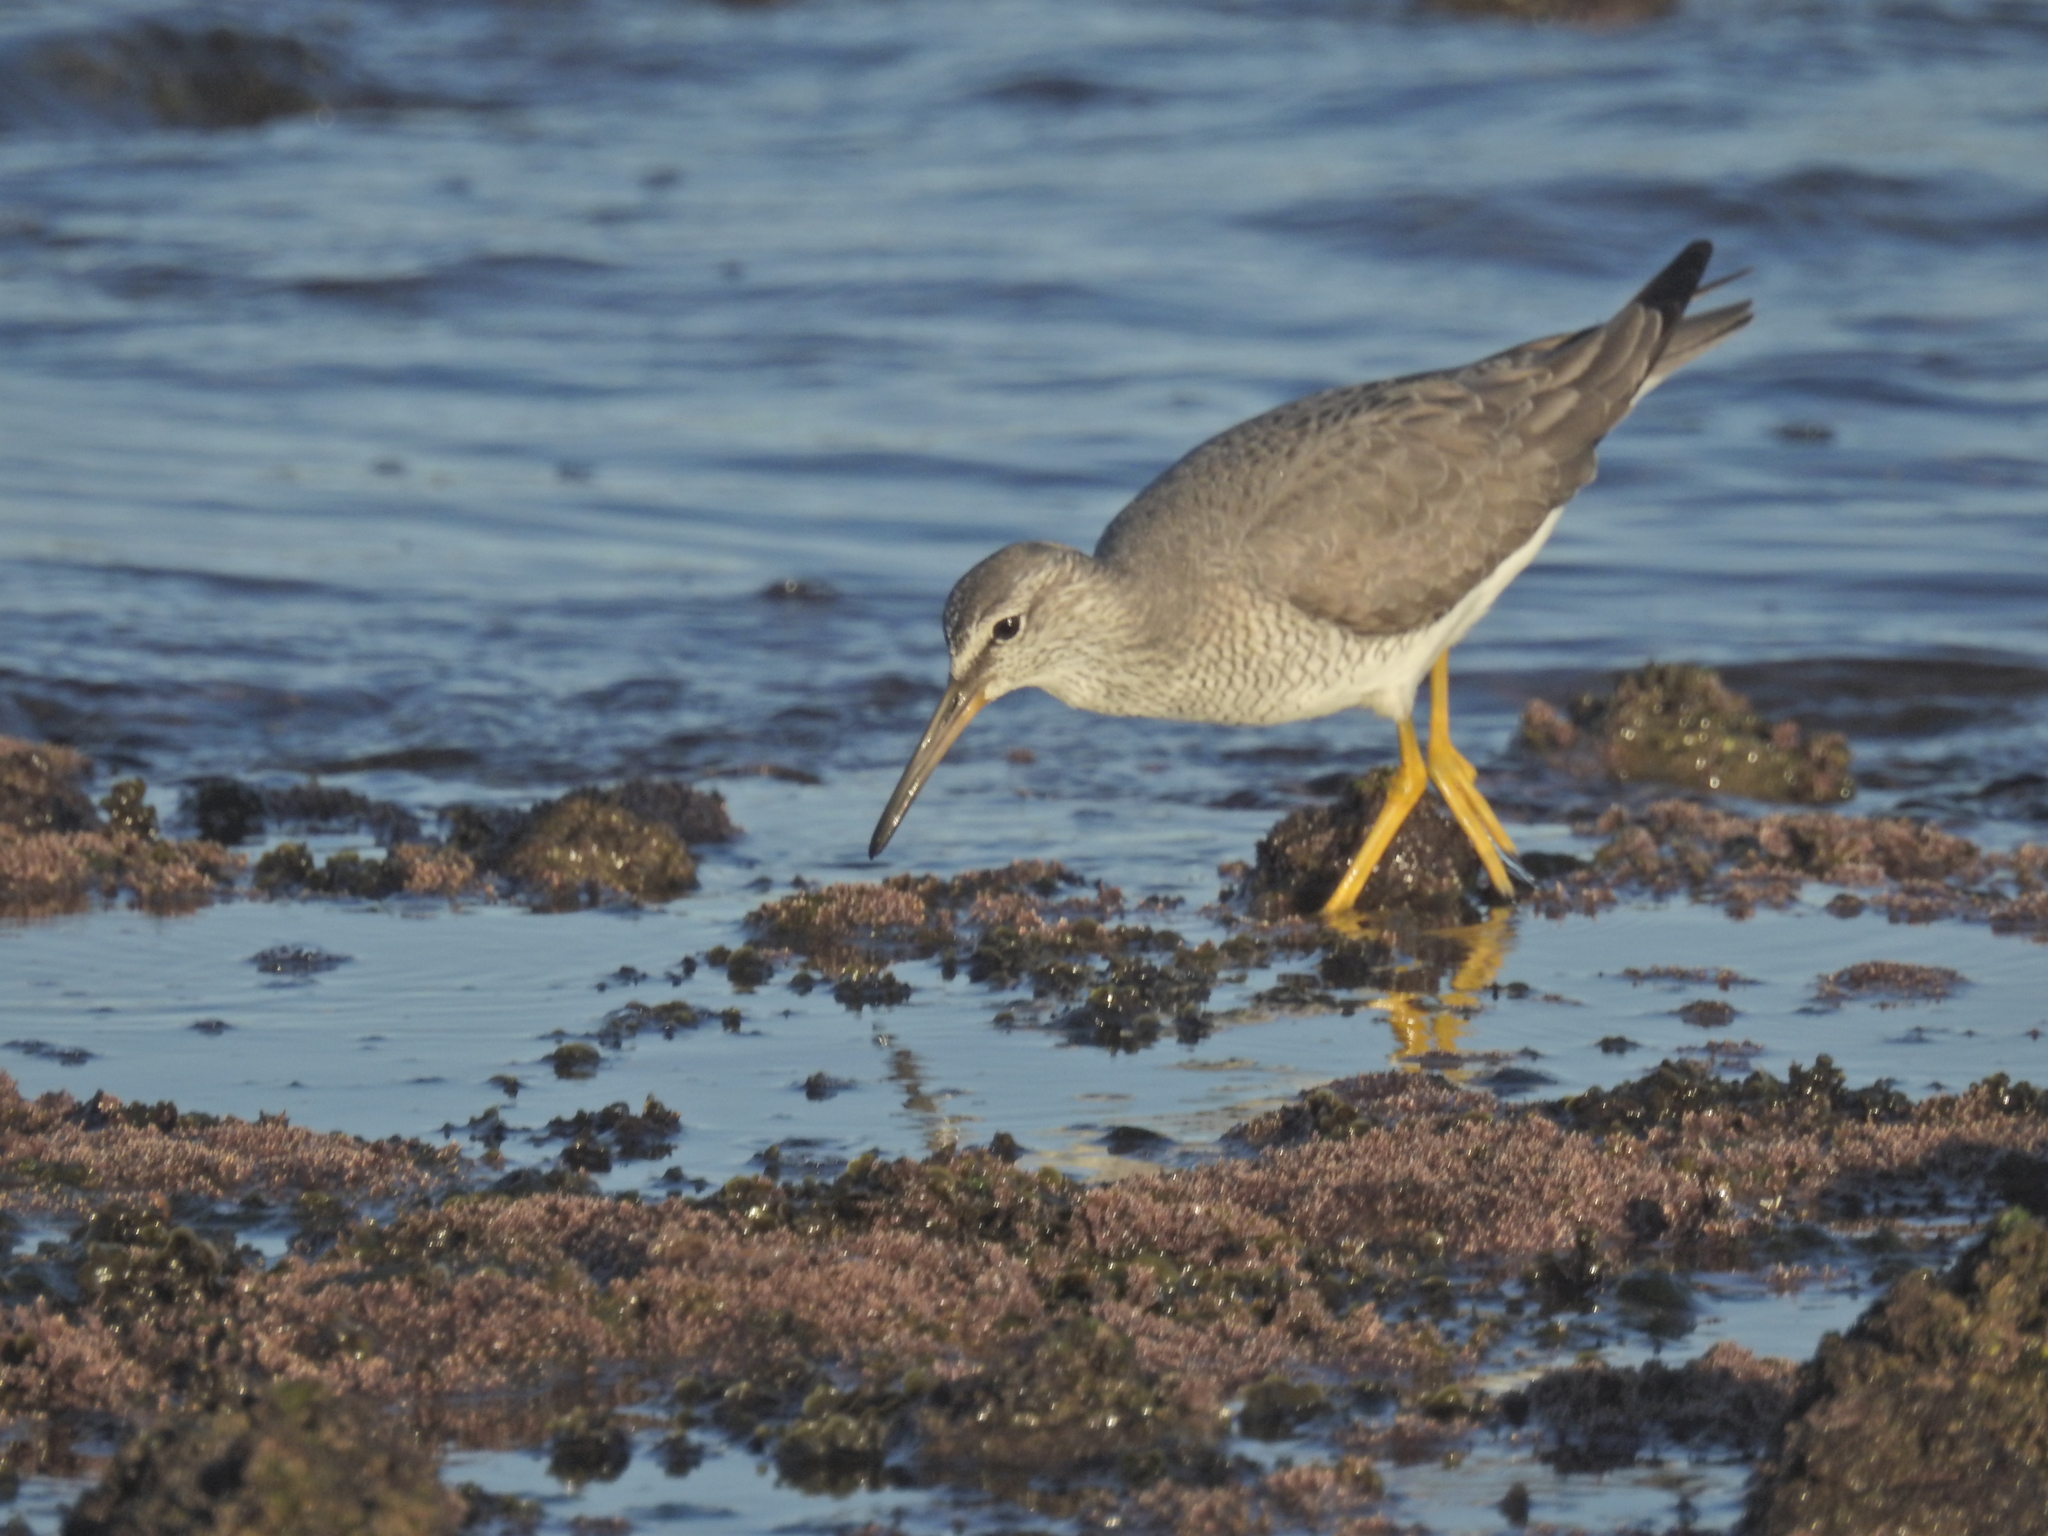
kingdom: Animalia
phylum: Chordata
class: Aves
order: Charadriiformes
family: Scolopacidae
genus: Tringa
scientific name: Tringa brevipes
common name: Grey-tailed tattler
